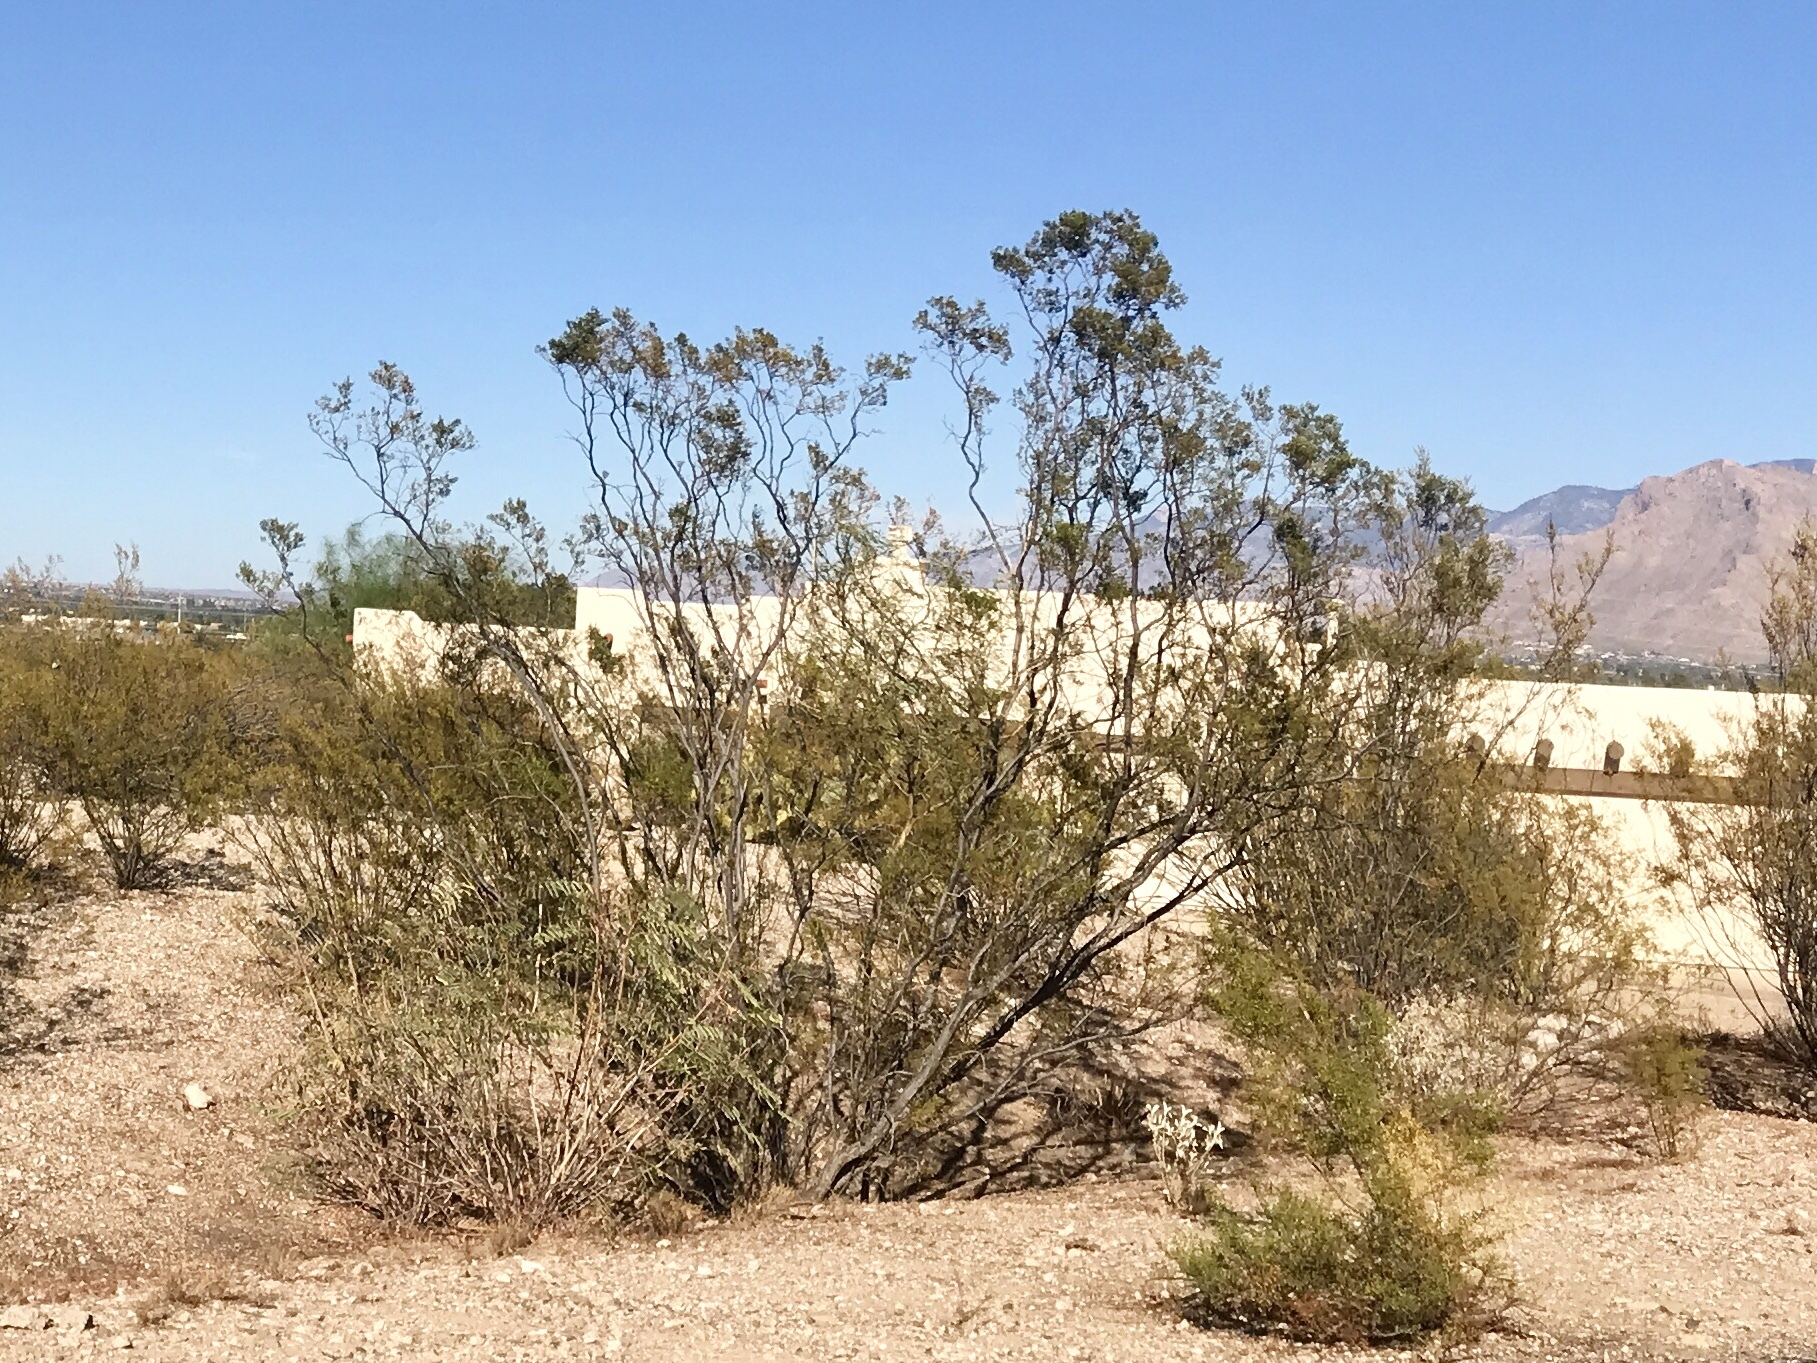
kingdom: Plantae
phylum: Tracheophyta
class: Magnoliopsida
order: Zygophyllales
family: Zygophyllaceae
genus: Larrea
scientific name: Larrea tridentata
